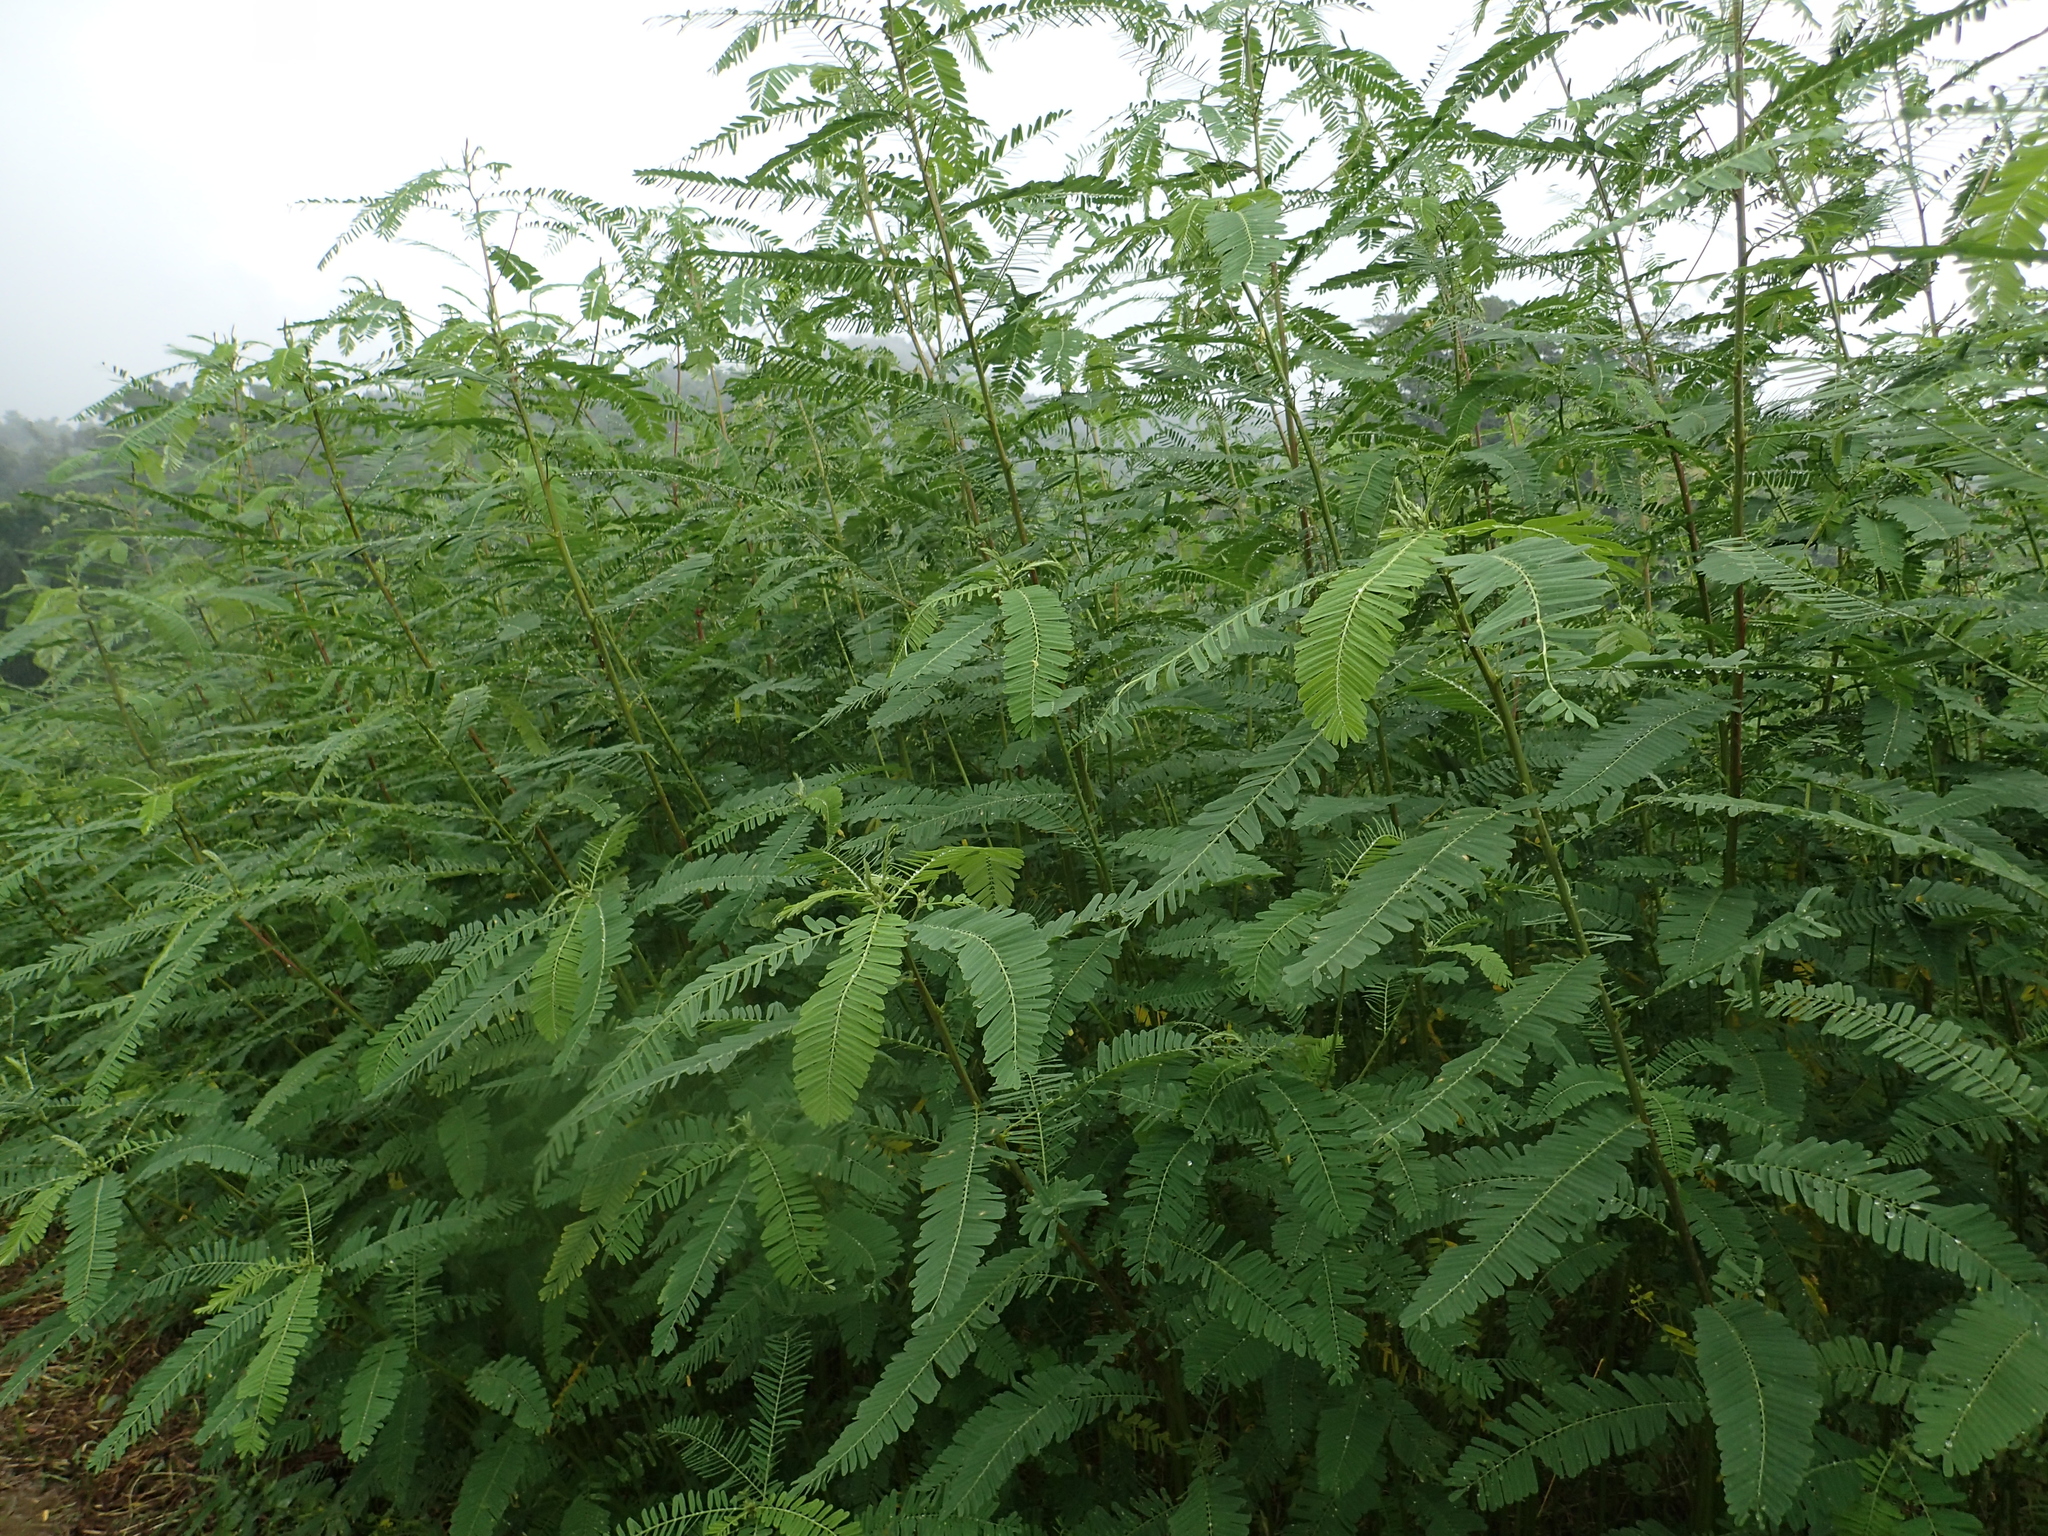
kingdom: Plantae
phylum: Tracheophyta
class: Magnoliopsida
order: Fabales
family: Fabaceae
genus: Sesbania
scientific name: Sesbania cannabina
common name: Canicha
